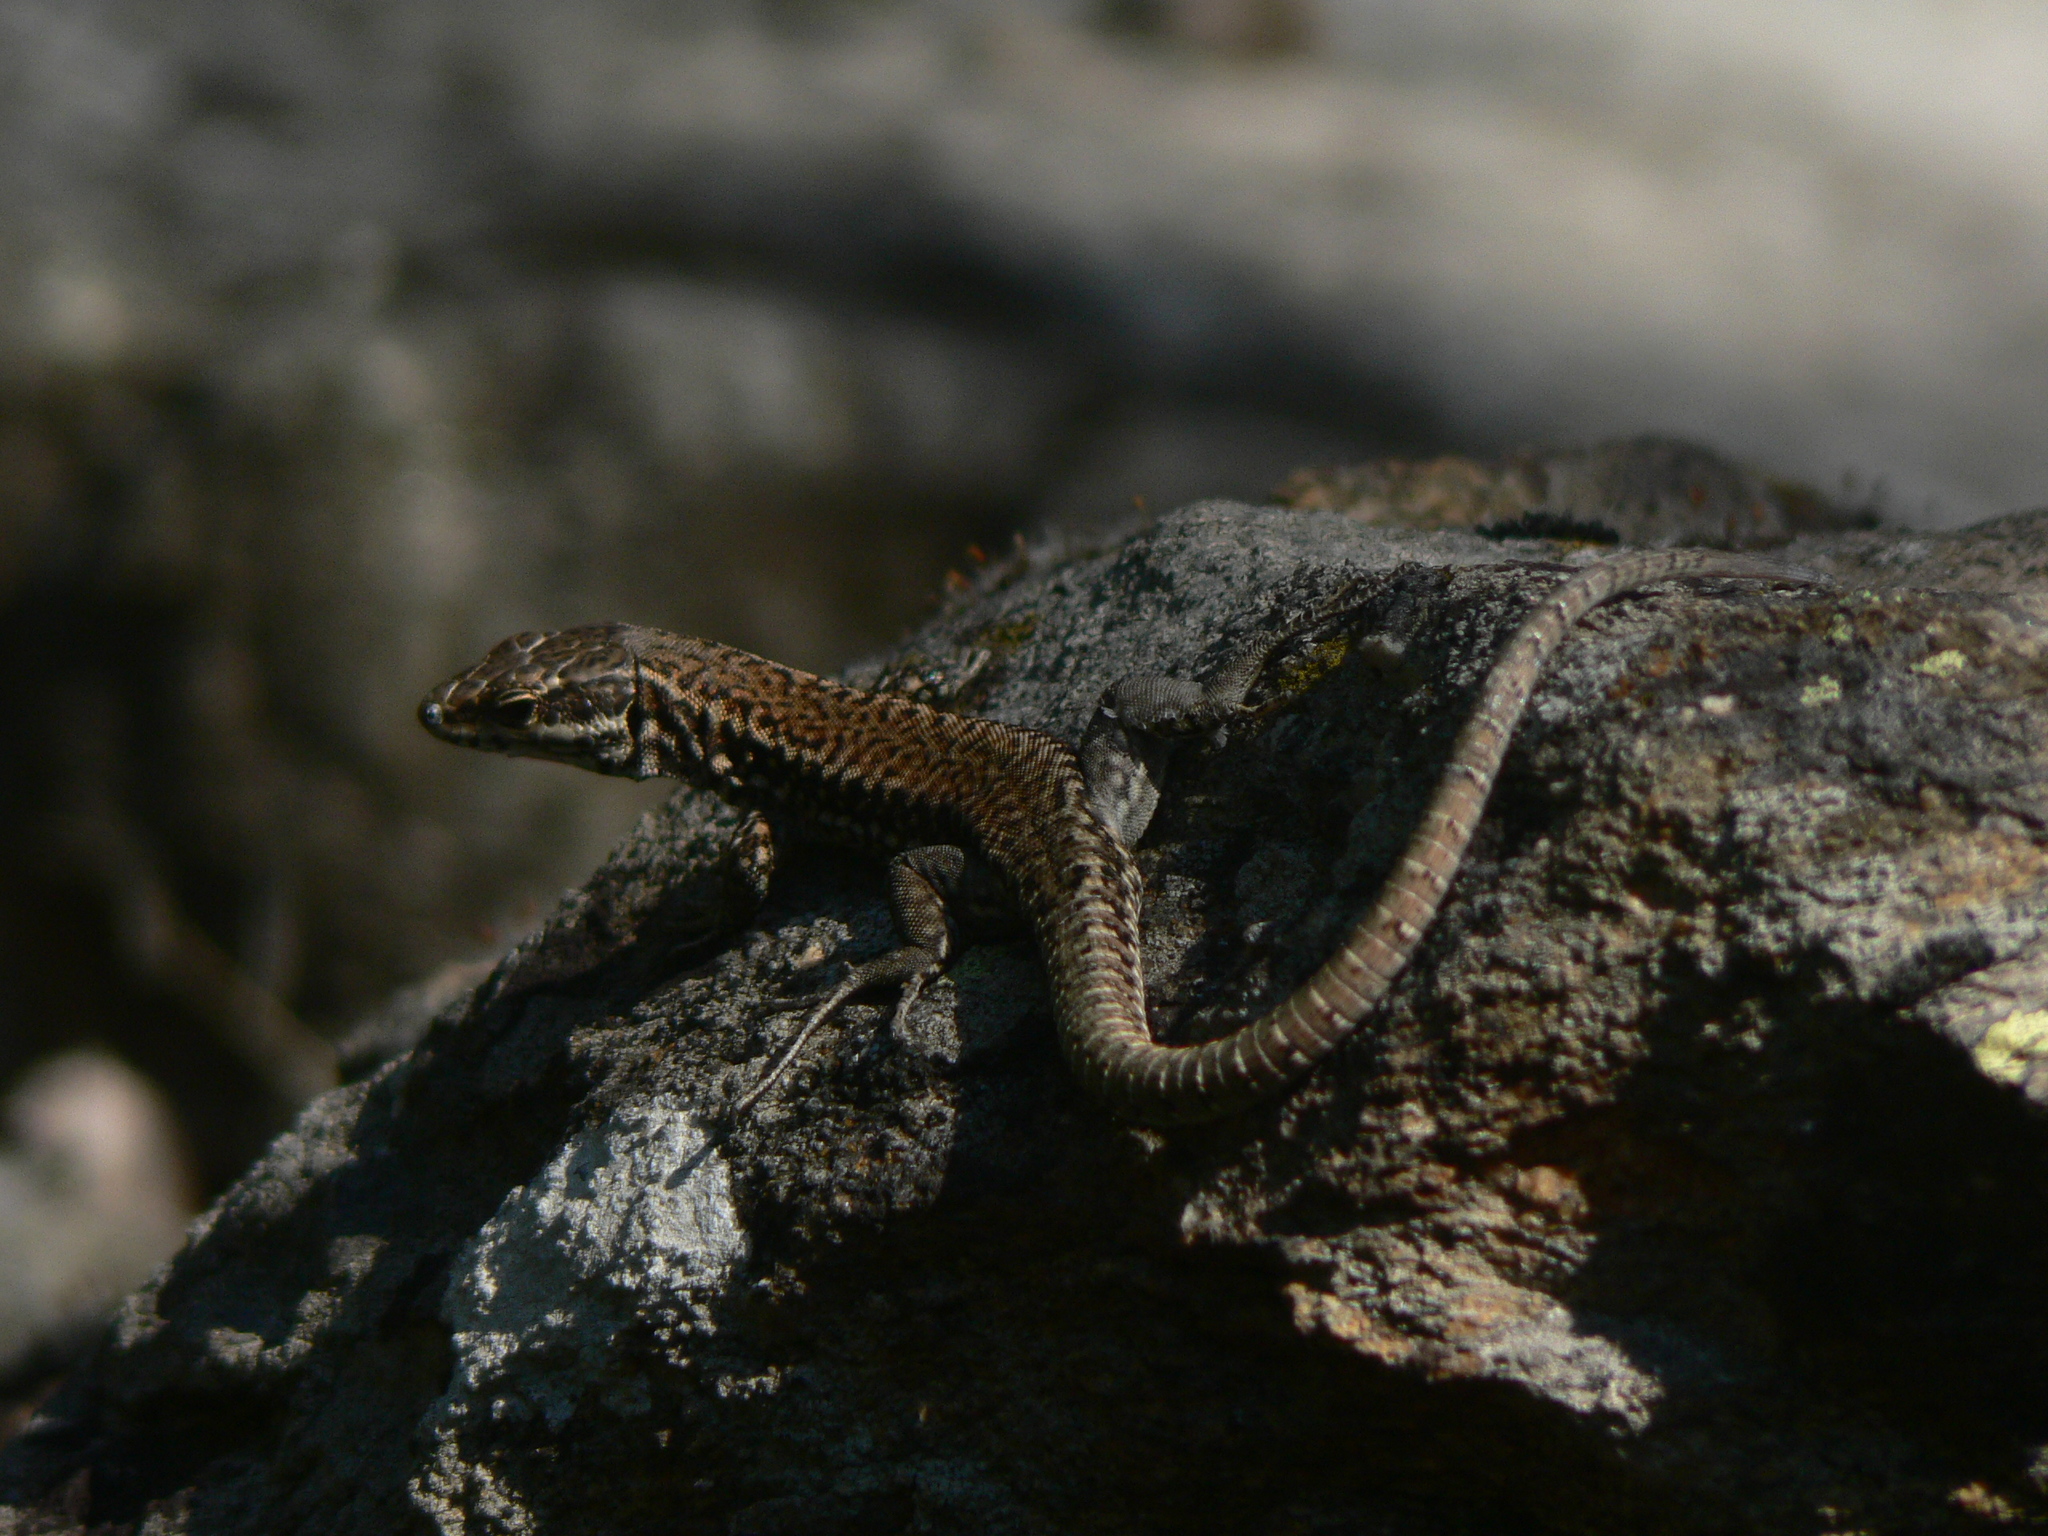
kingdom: Animalia
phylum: Chordata
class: Squamata
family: Lacertidae
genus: Podarcis
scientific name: Podarcis muralis
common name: Common wall lizard
